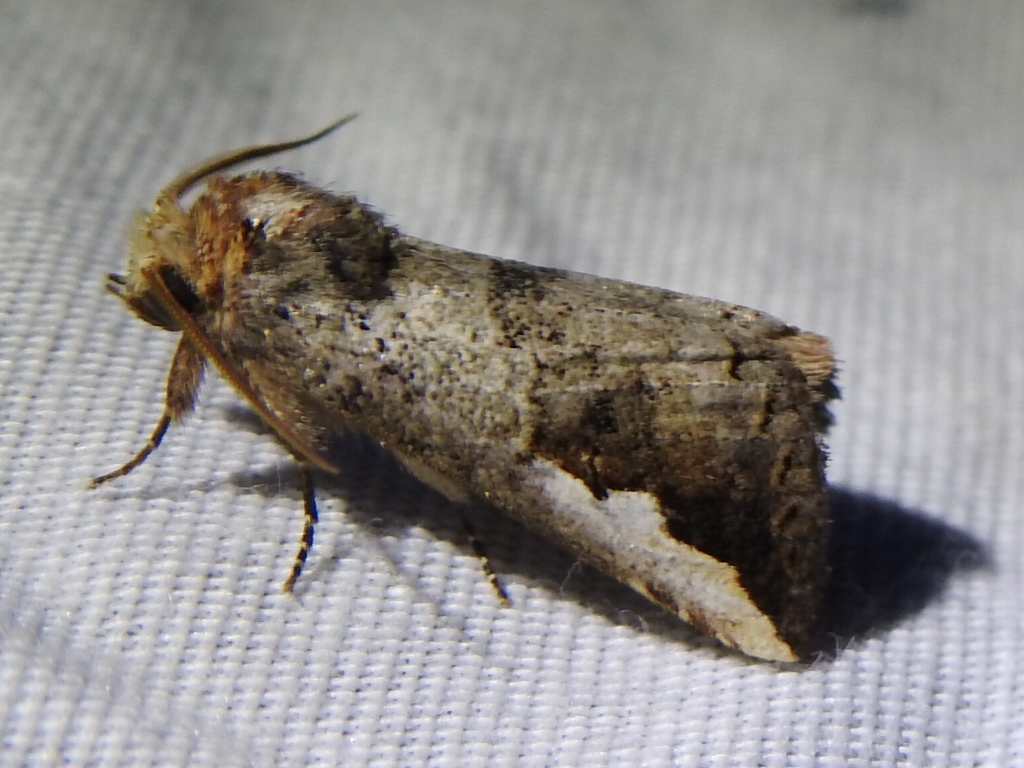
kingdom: Animalia
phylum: Arthropoda
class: Insecta
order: Lepidoptera
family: Notodontidae
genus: Symmerista
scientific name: Symmerista
